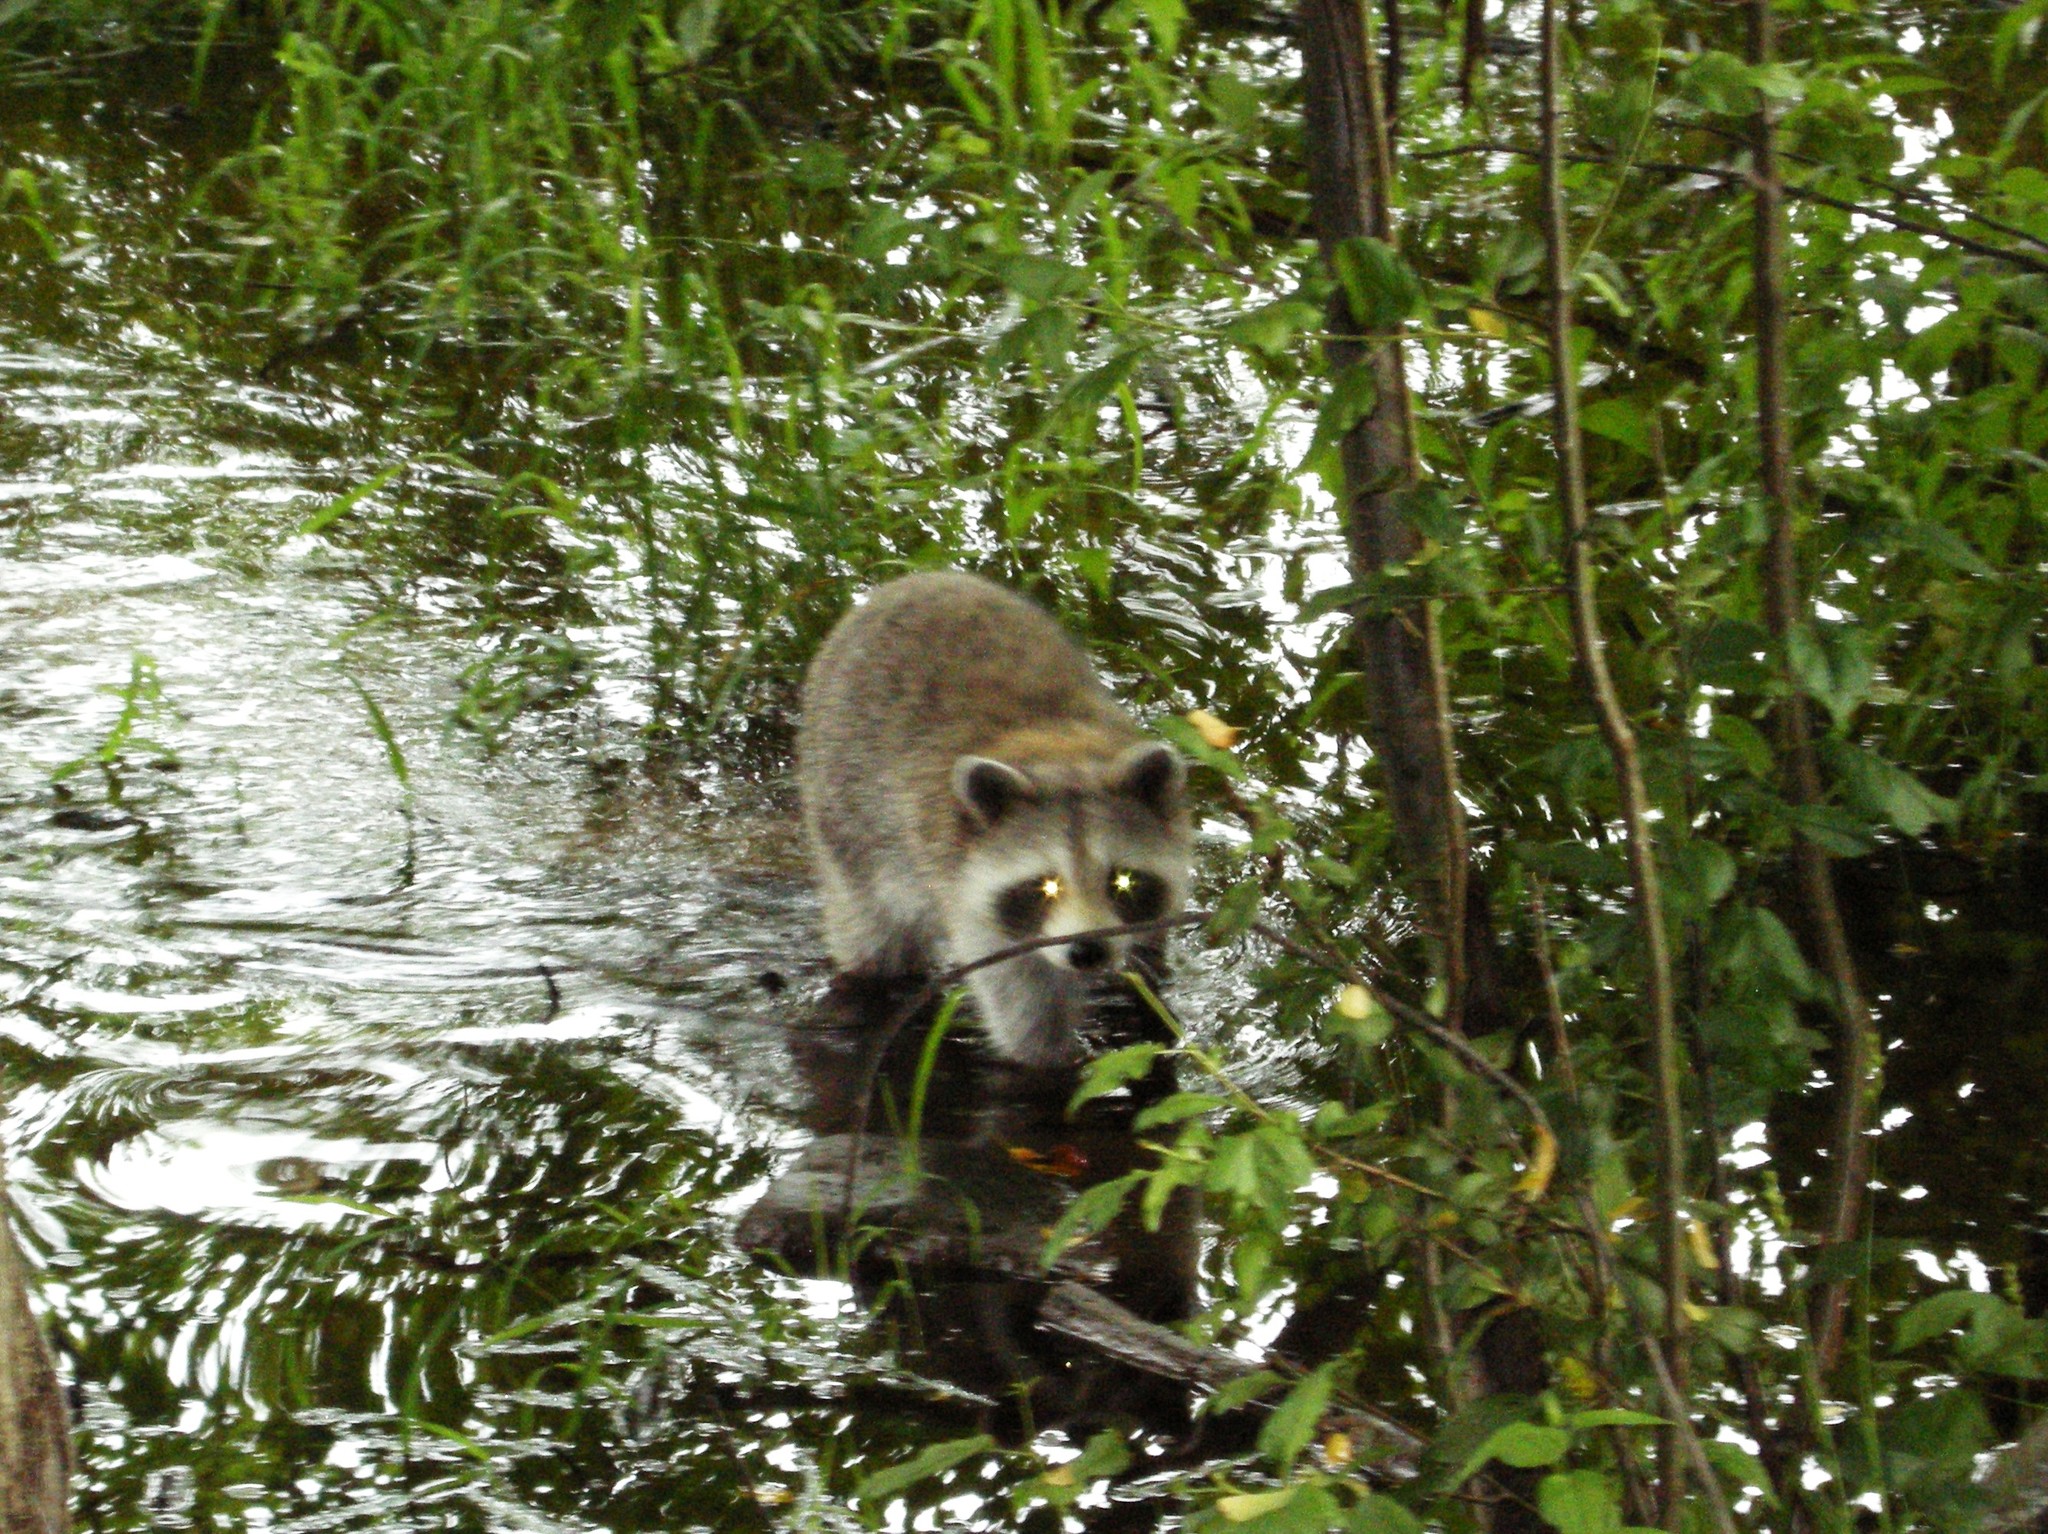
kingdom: Animalia
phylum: Chordata
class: Mammalia
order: Carnivora
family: Procyonidae
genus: Procyon
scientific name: Procyon lotor
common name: Raccoon
